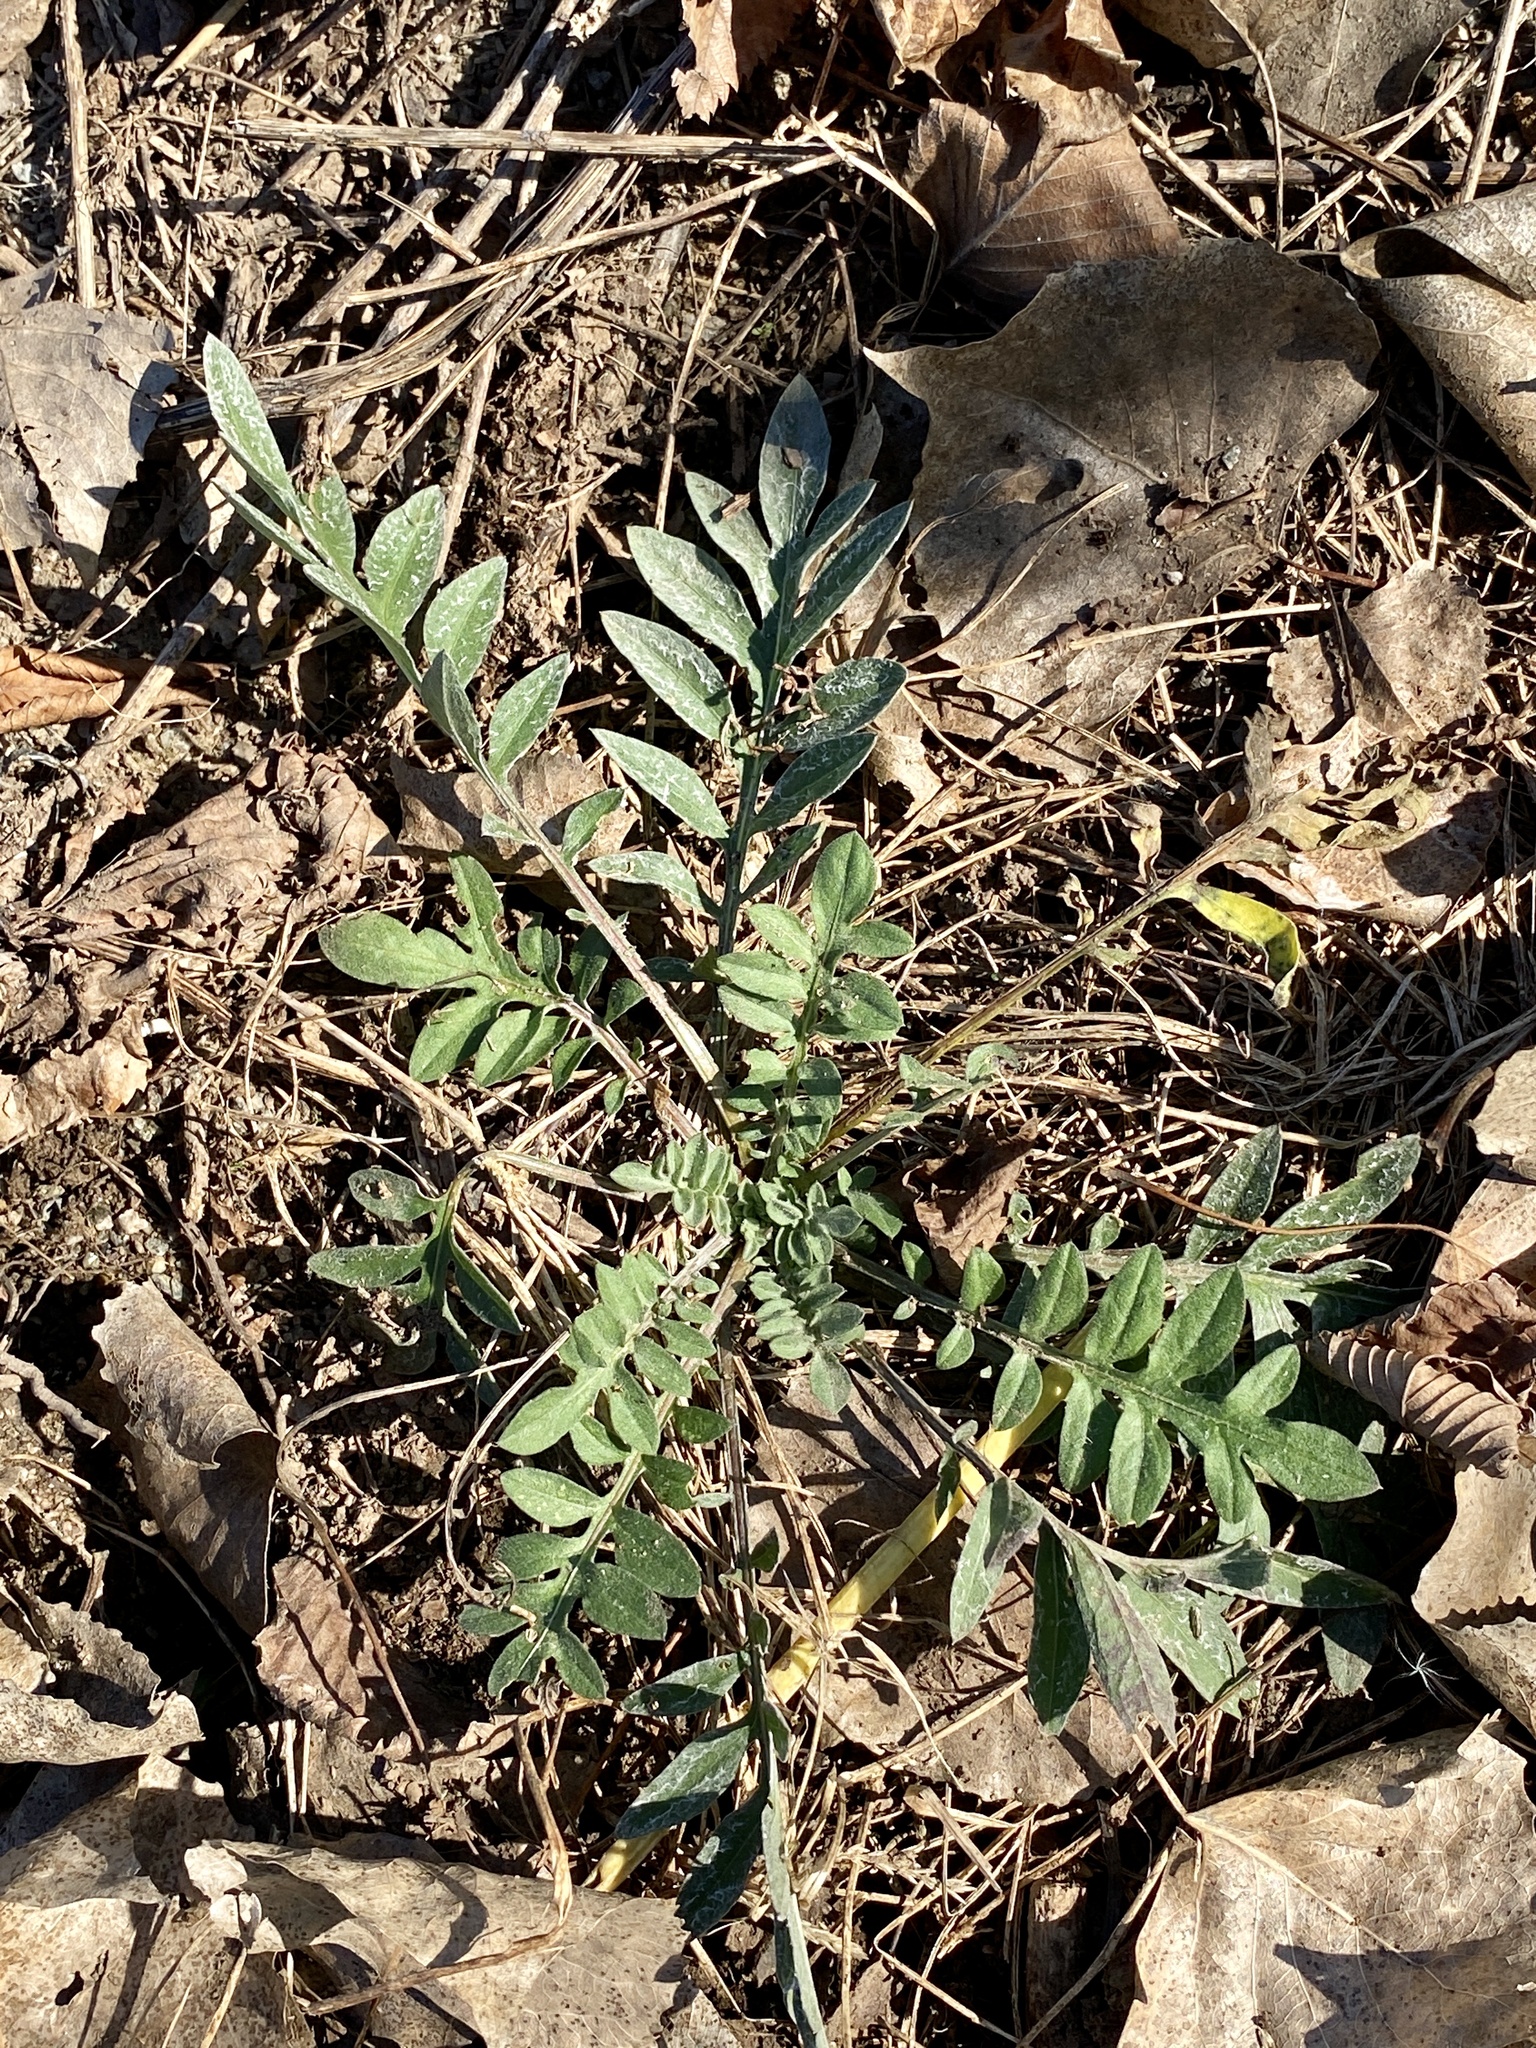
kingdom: Plantae
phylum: Tracheophyta
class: Magnoliopsida
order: Asterales
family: Asteraceae
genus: Centaurea
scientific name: Centaurea stoebe
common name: Spotted knapweed
